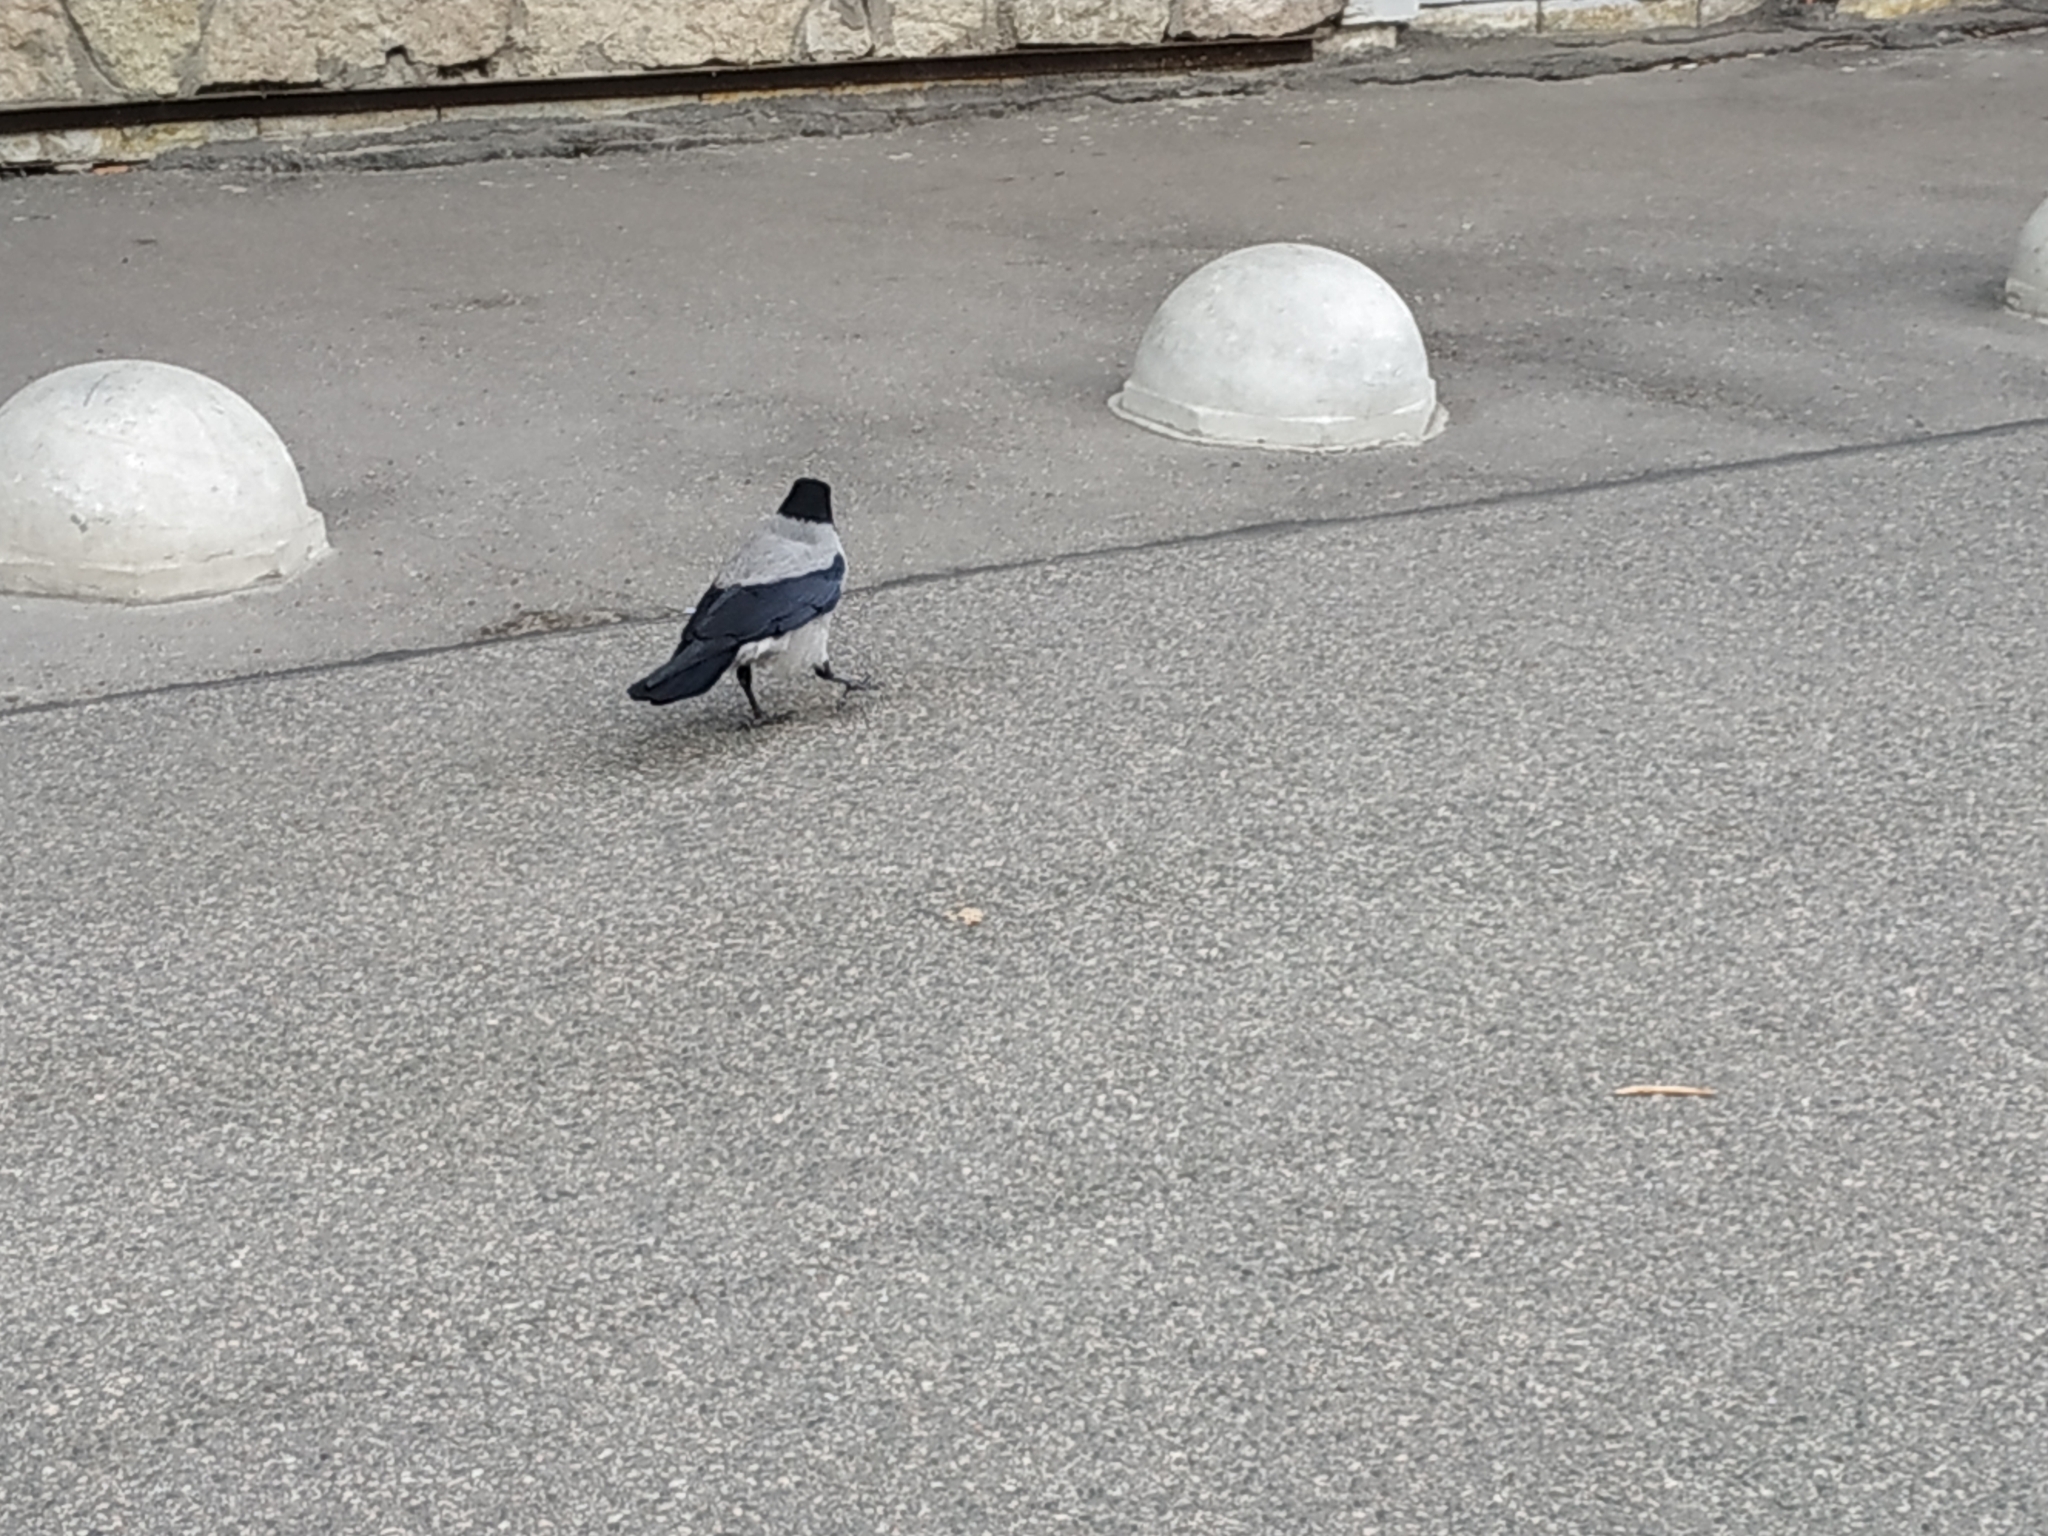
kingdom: Animalia
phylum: Chordata
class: Aves
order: Passeriformes
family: Corvidae
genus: Corvus
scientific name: Corvus cornix
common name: Hooded crow
